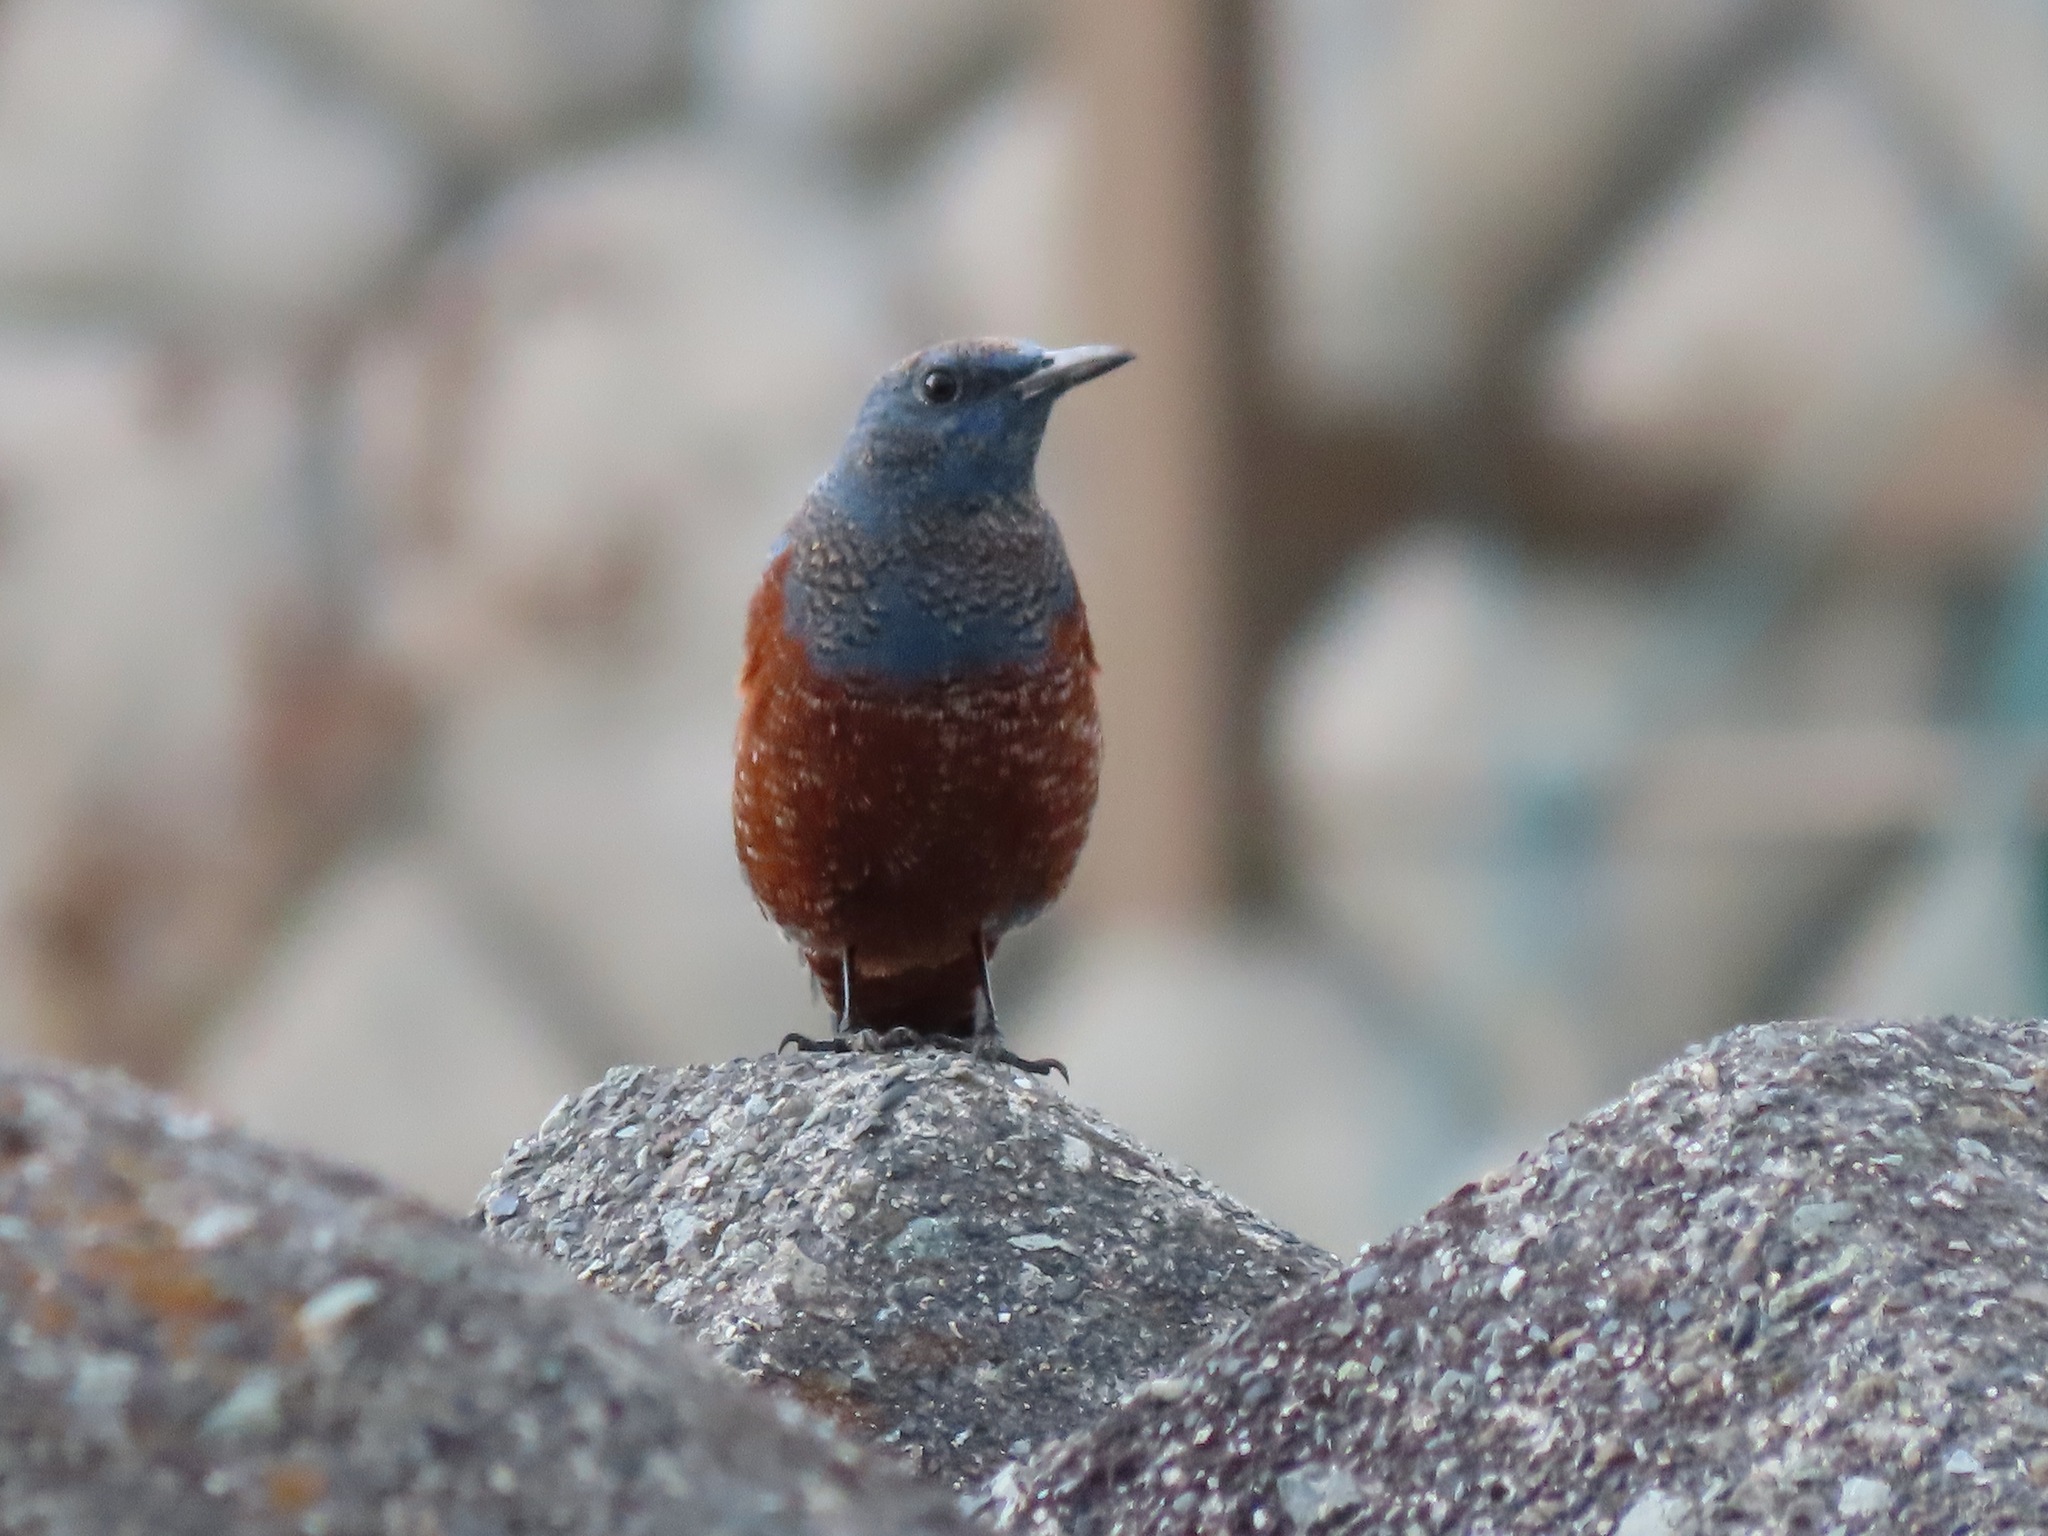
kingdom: Animalia
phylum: Chordata
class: Aves
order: Passeriformes
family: Muscicapidae
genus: Monticola
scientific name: Monticola solitarius
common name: Blue rock thrush
